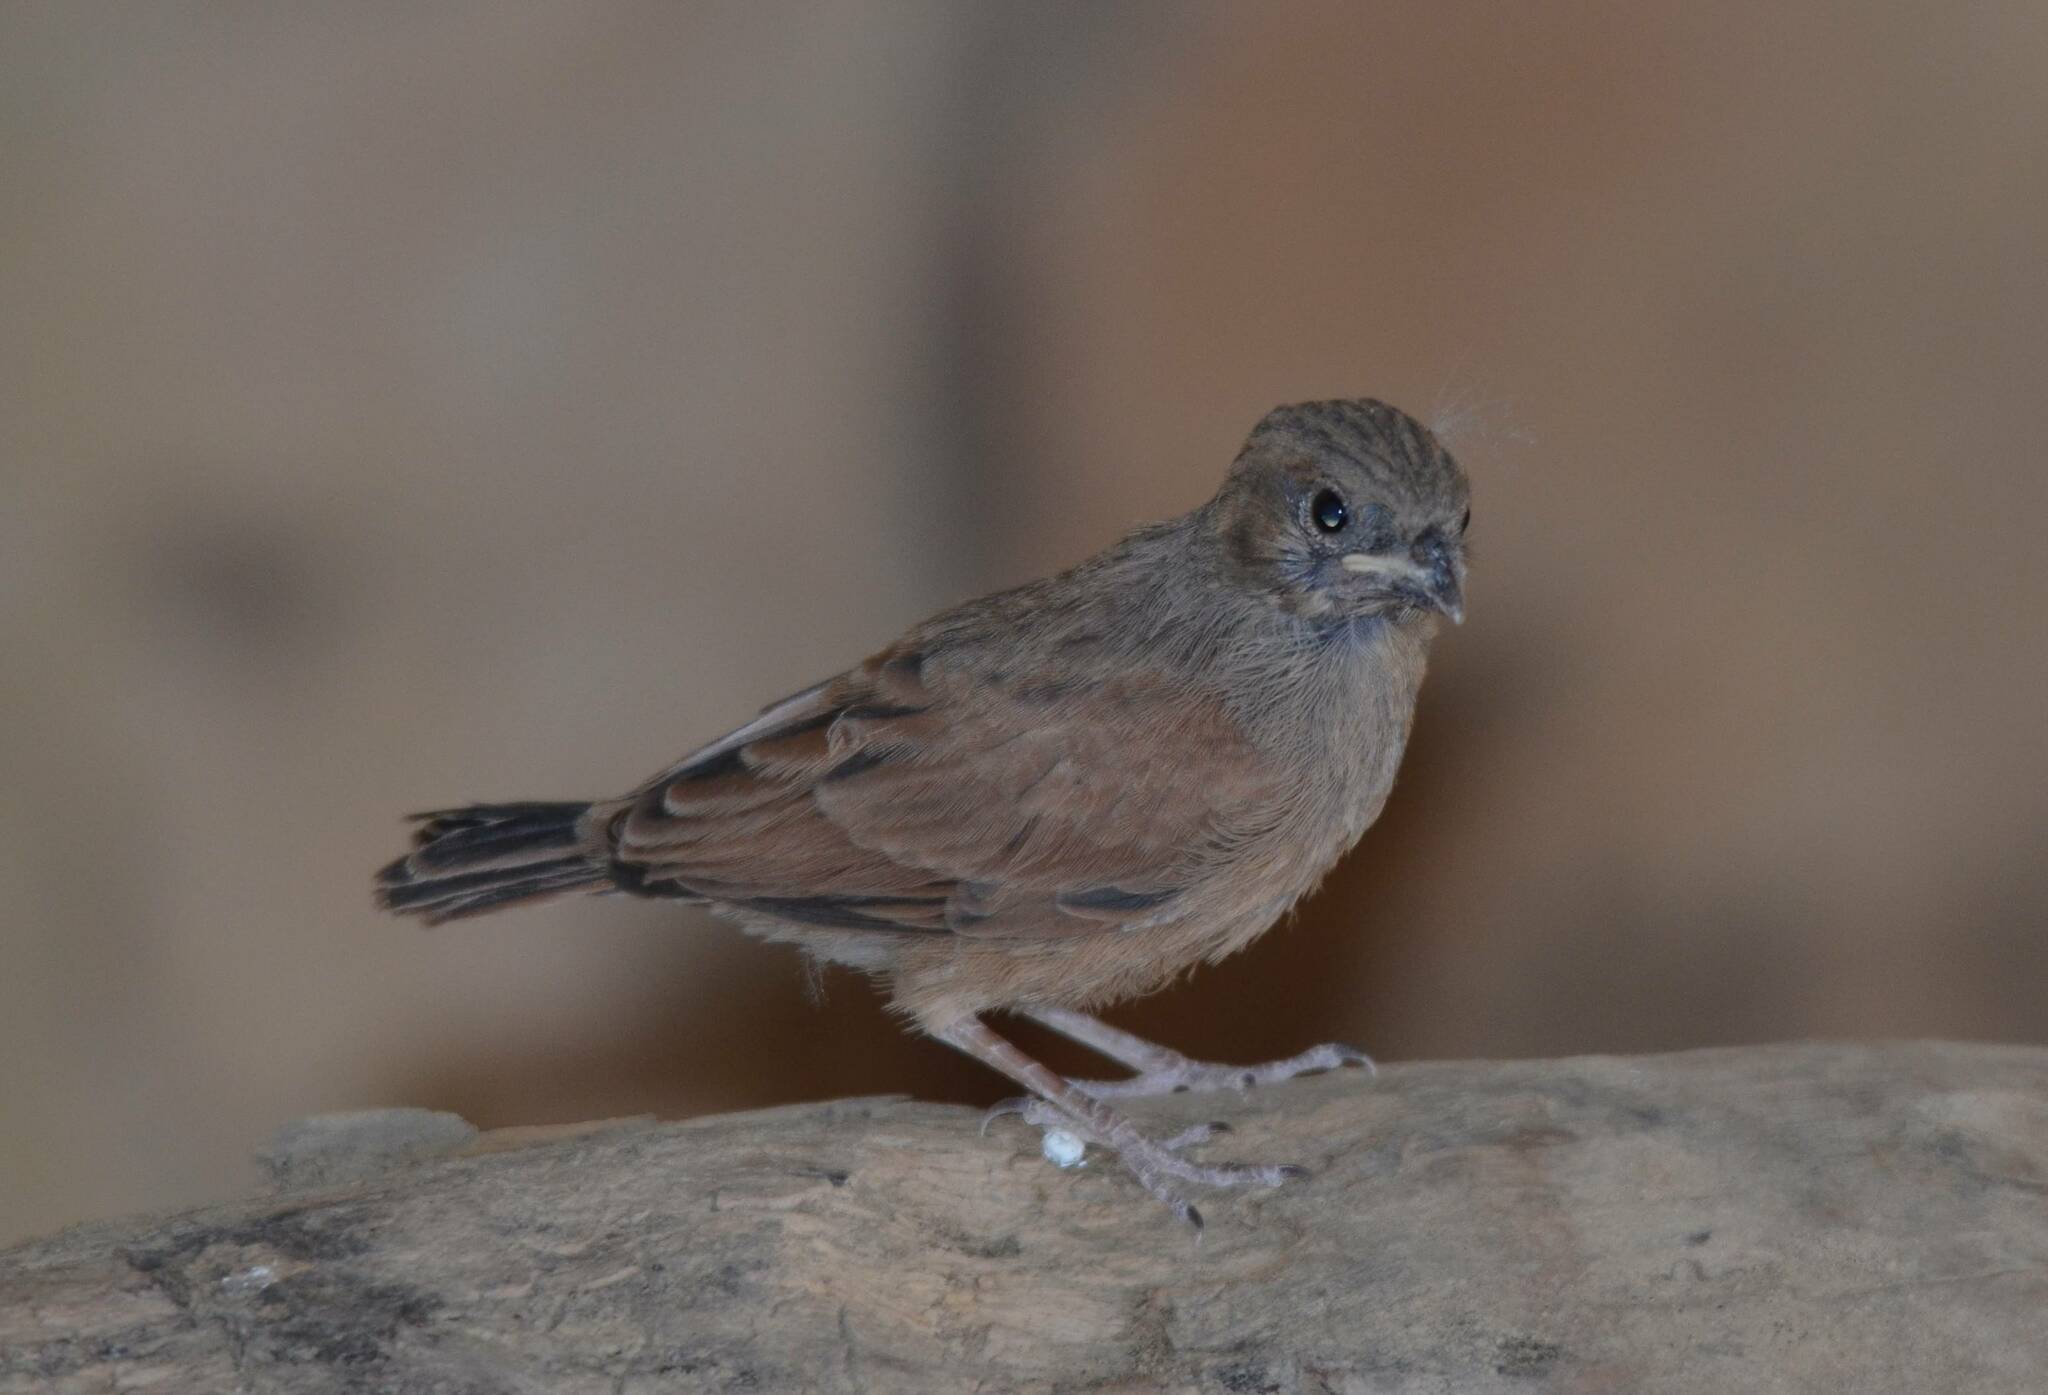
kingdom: Animalia
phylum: Chordata
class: Aves
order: Passeriformes
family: Emberizidae
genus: Emberiza
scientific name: Emberiza sahari
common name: House bunting
